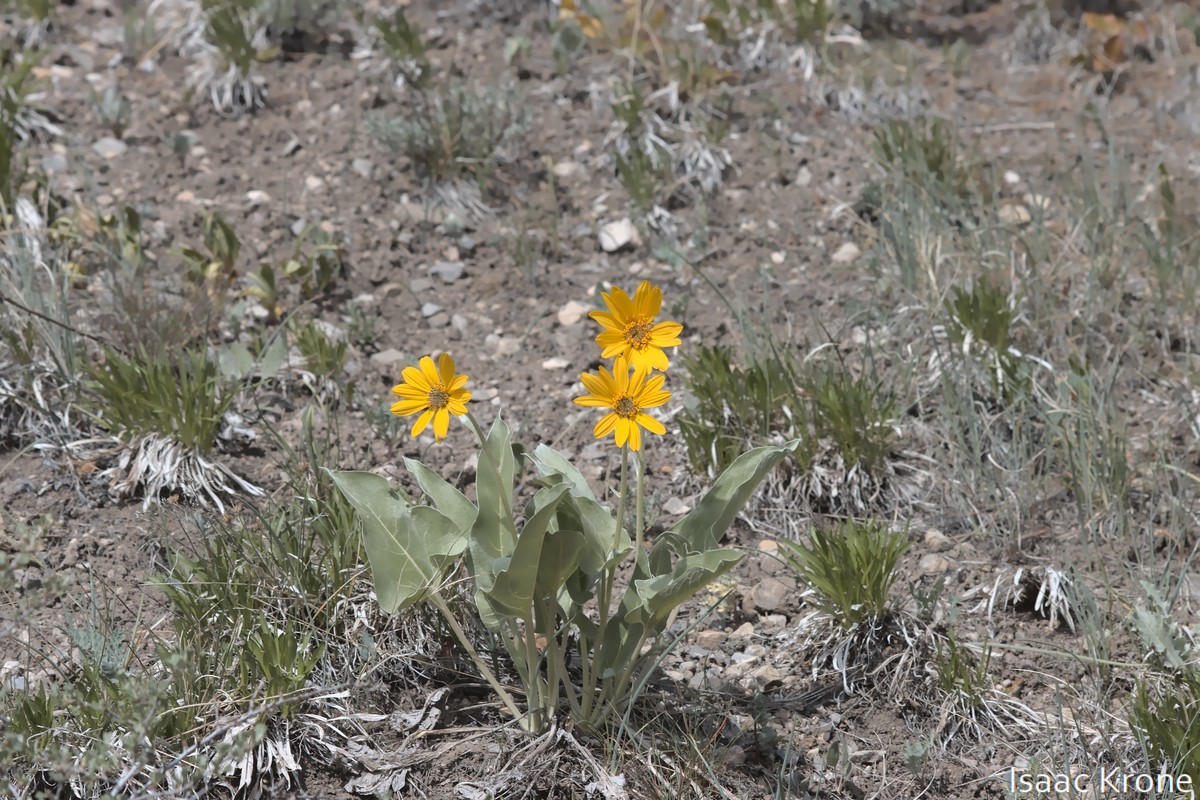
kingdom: Plantae
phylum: Tracheophyta
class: Magnoliopsida
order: Asterales
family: Asteraceae
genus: Wyethia
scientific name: Wyethia sagittata
